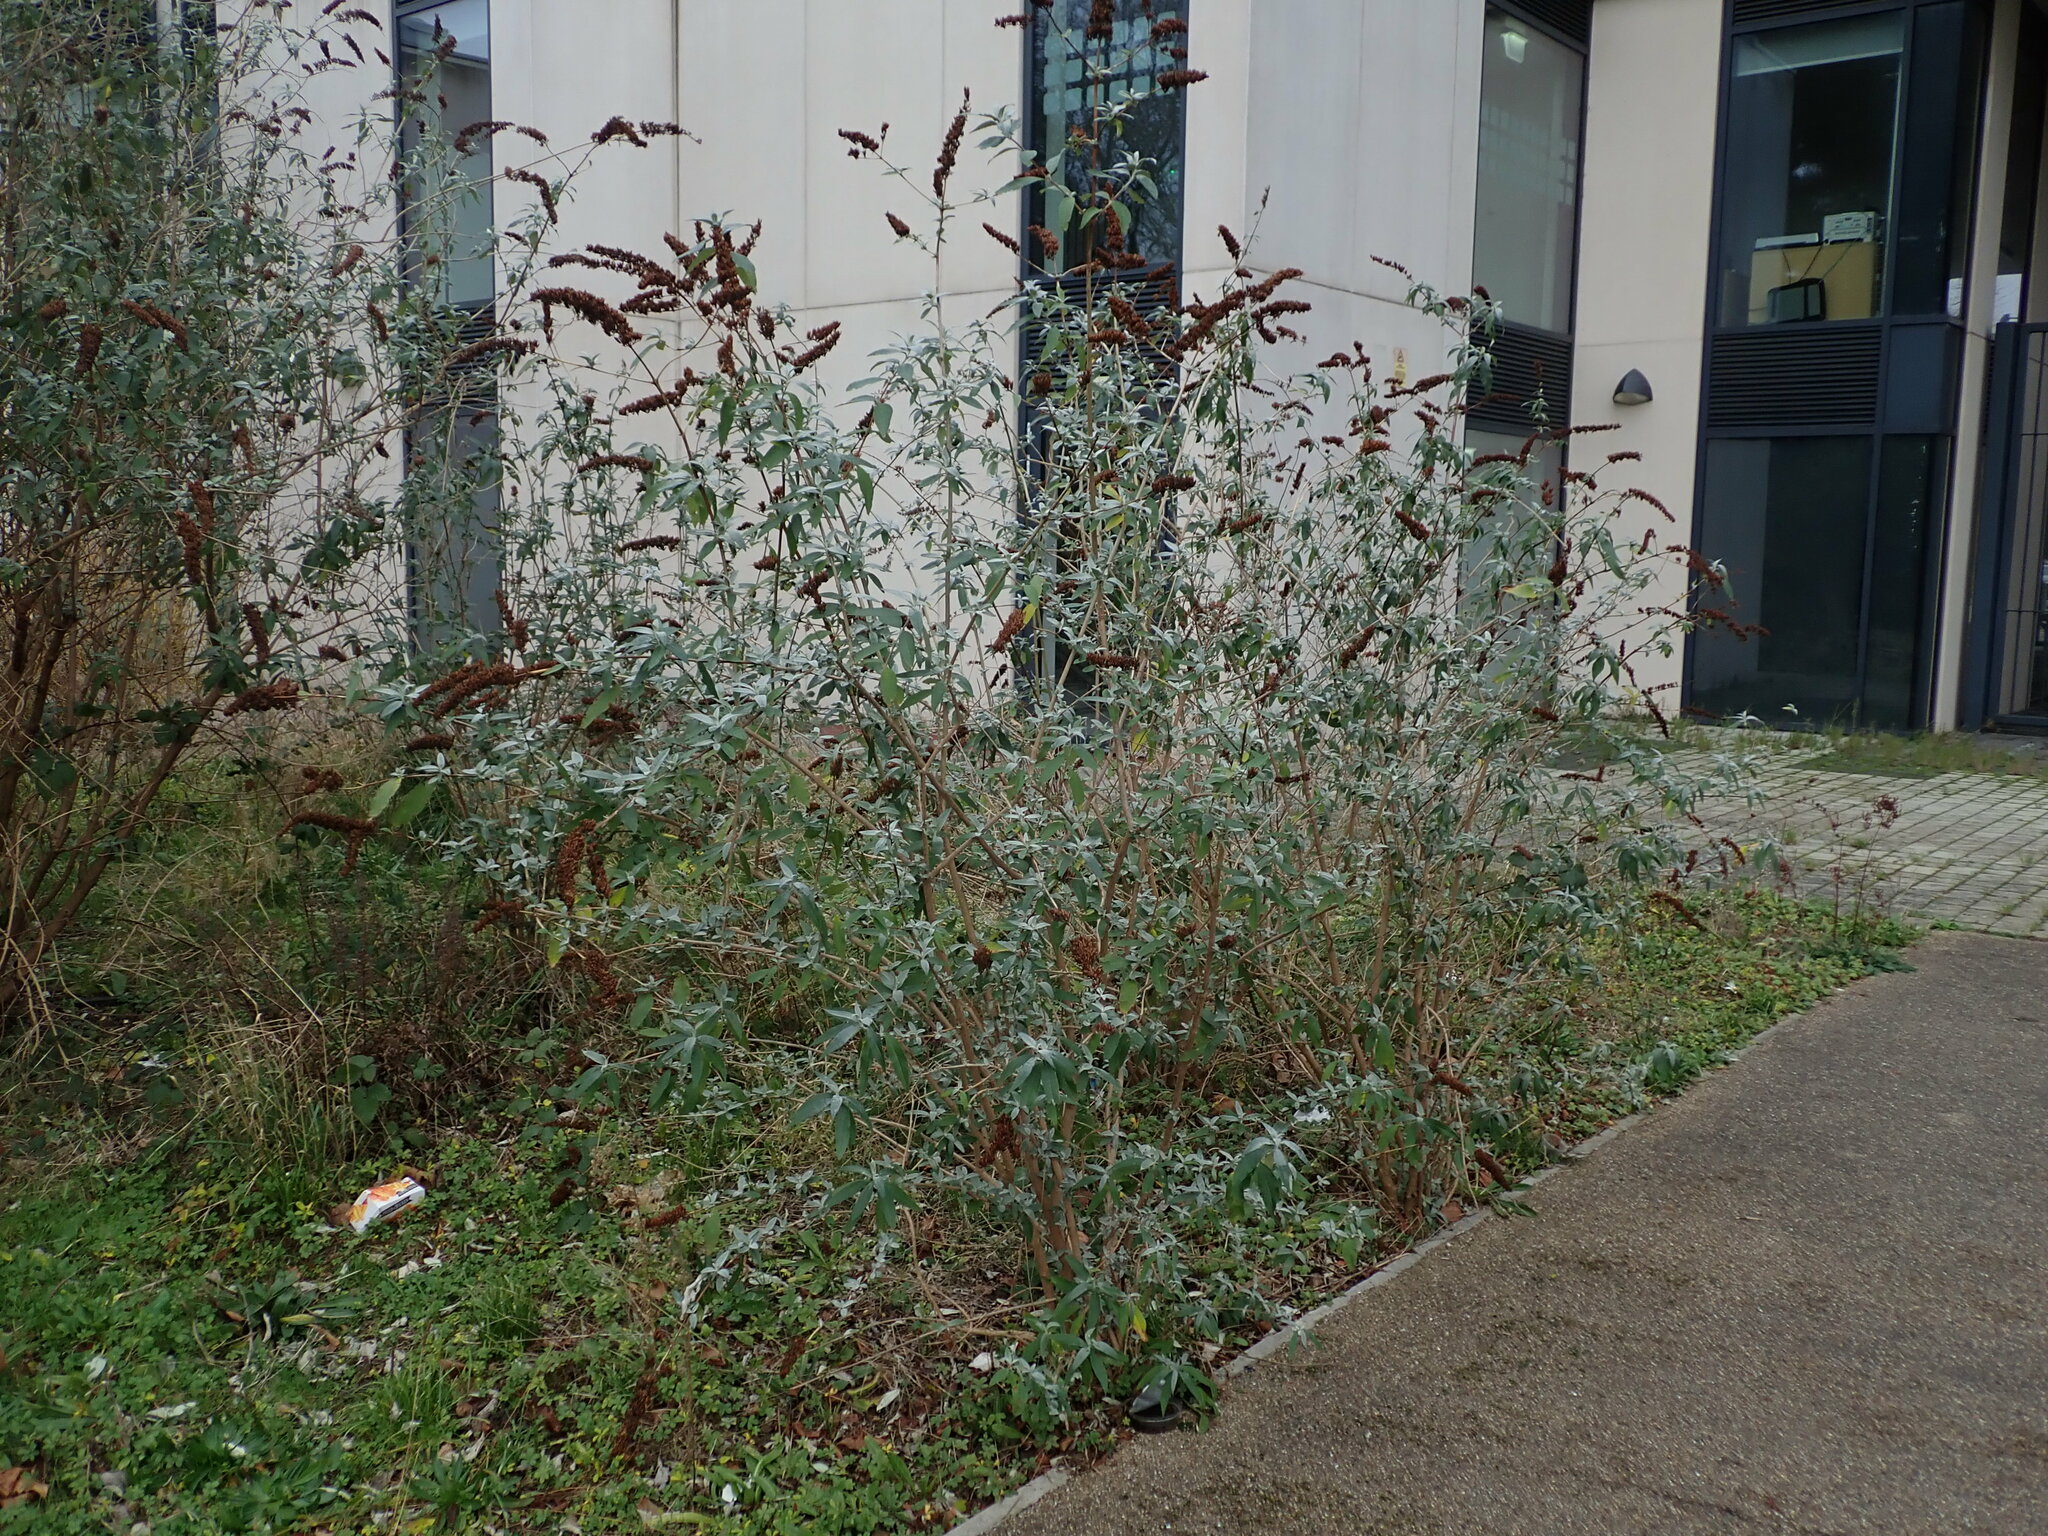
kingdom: Plantae
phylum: Tracheophyta
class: Magnoliopsida
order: Lamiales
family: Scrophulariaceae
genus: Buddleja
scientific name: Buddleja davidii
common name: Butterfly-bush
